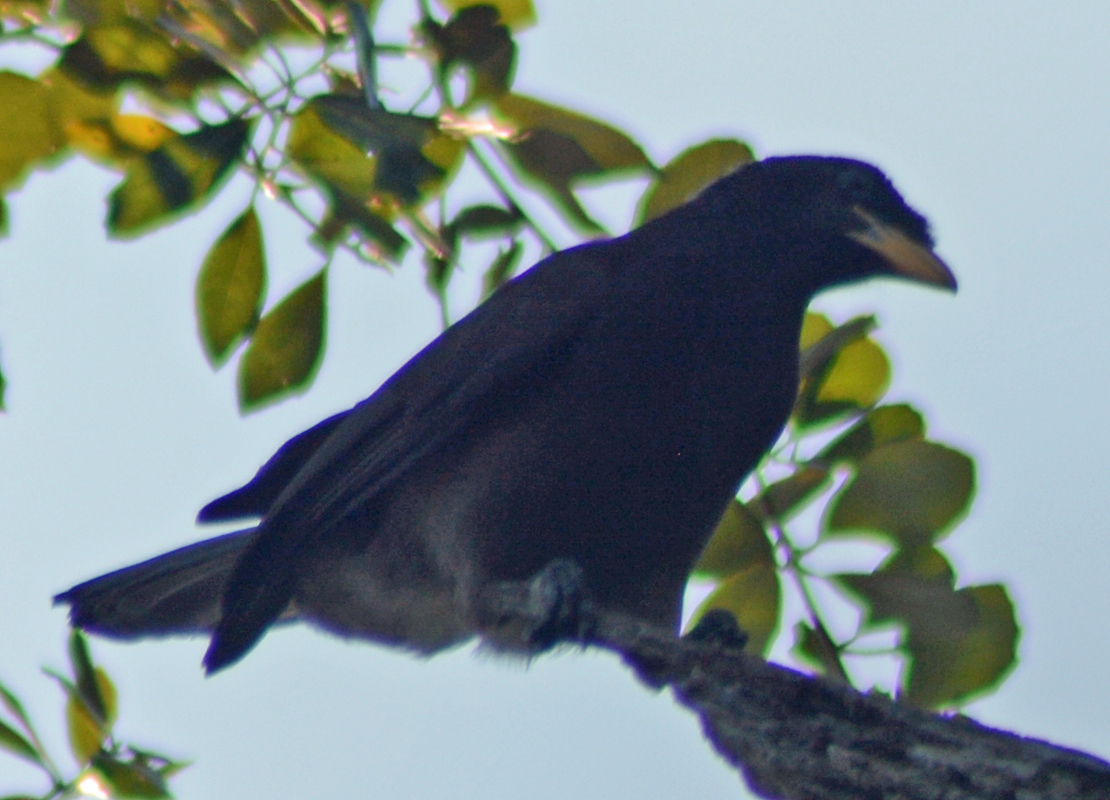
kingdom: Animalia
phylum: Chordata
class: Aves
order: Passeriformes
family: Corvidae
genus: Psilorhinus
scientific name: Psilorhinus morio
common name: Brown jay
